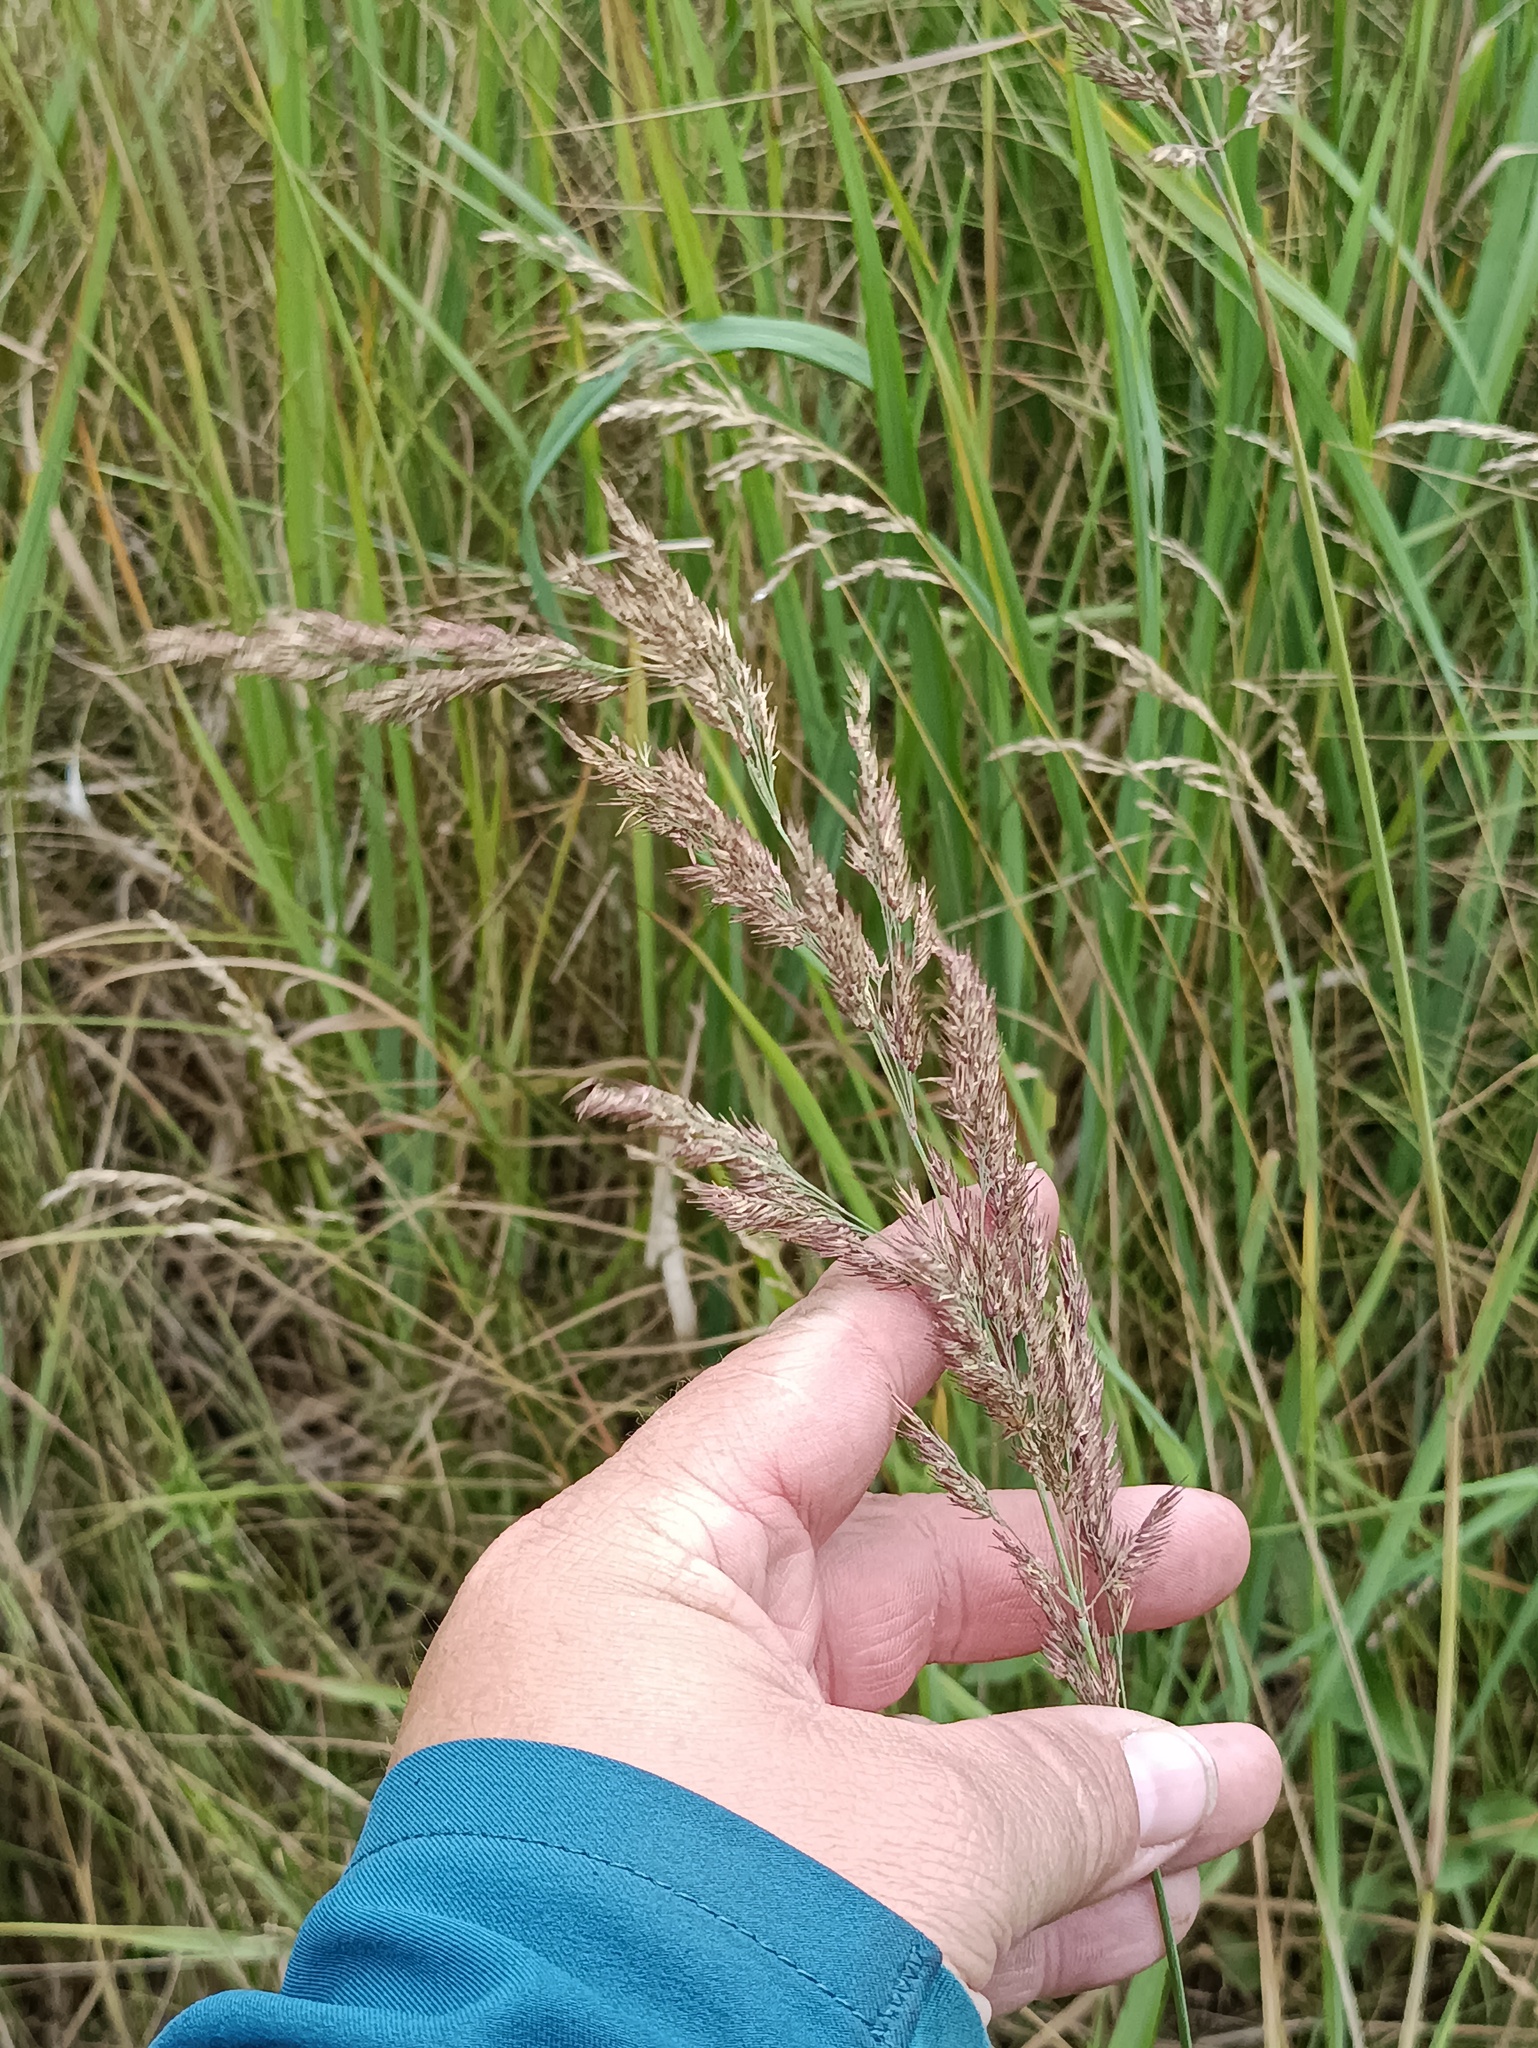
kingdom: Plantae
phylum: Tracheophyta
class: Liliopsida
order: Poales
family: Poaceae
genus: Calamagrostis
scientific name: Calamagrostis epigejos
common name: Wood small-reed
